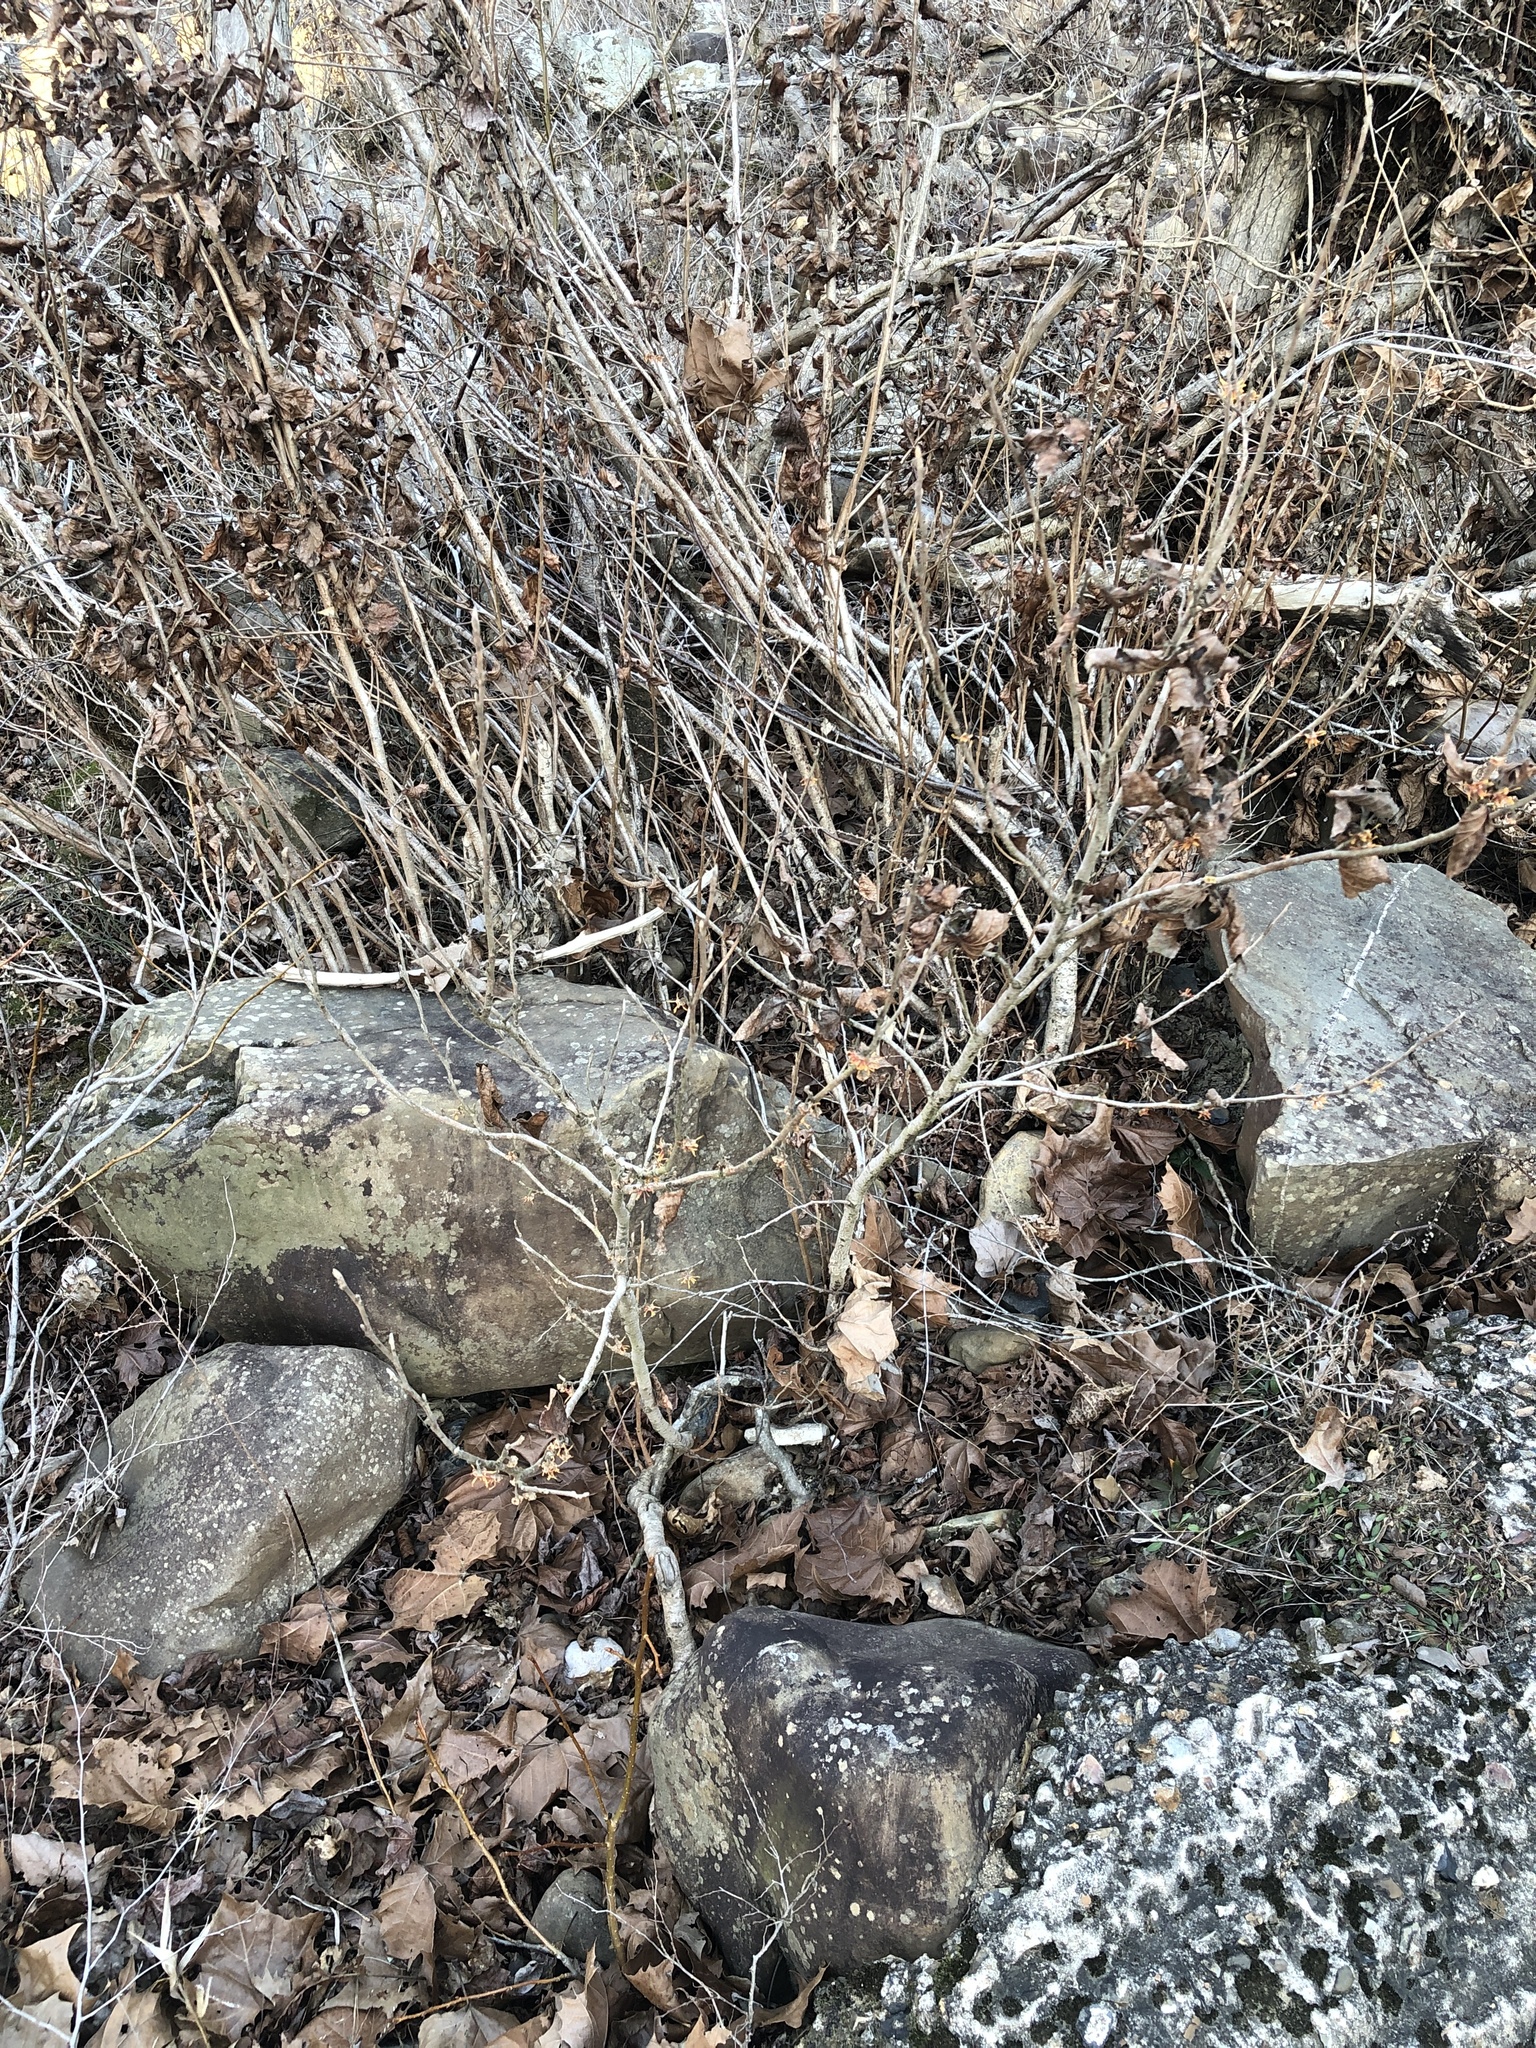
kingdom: Plantae
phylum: Tracheophyta
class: Magnoliopsida
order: Saxifragales
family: Hamamelidaceae
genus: Hamamelis
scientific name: Hamamelis vernalis
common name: Ozark witch-hazel
